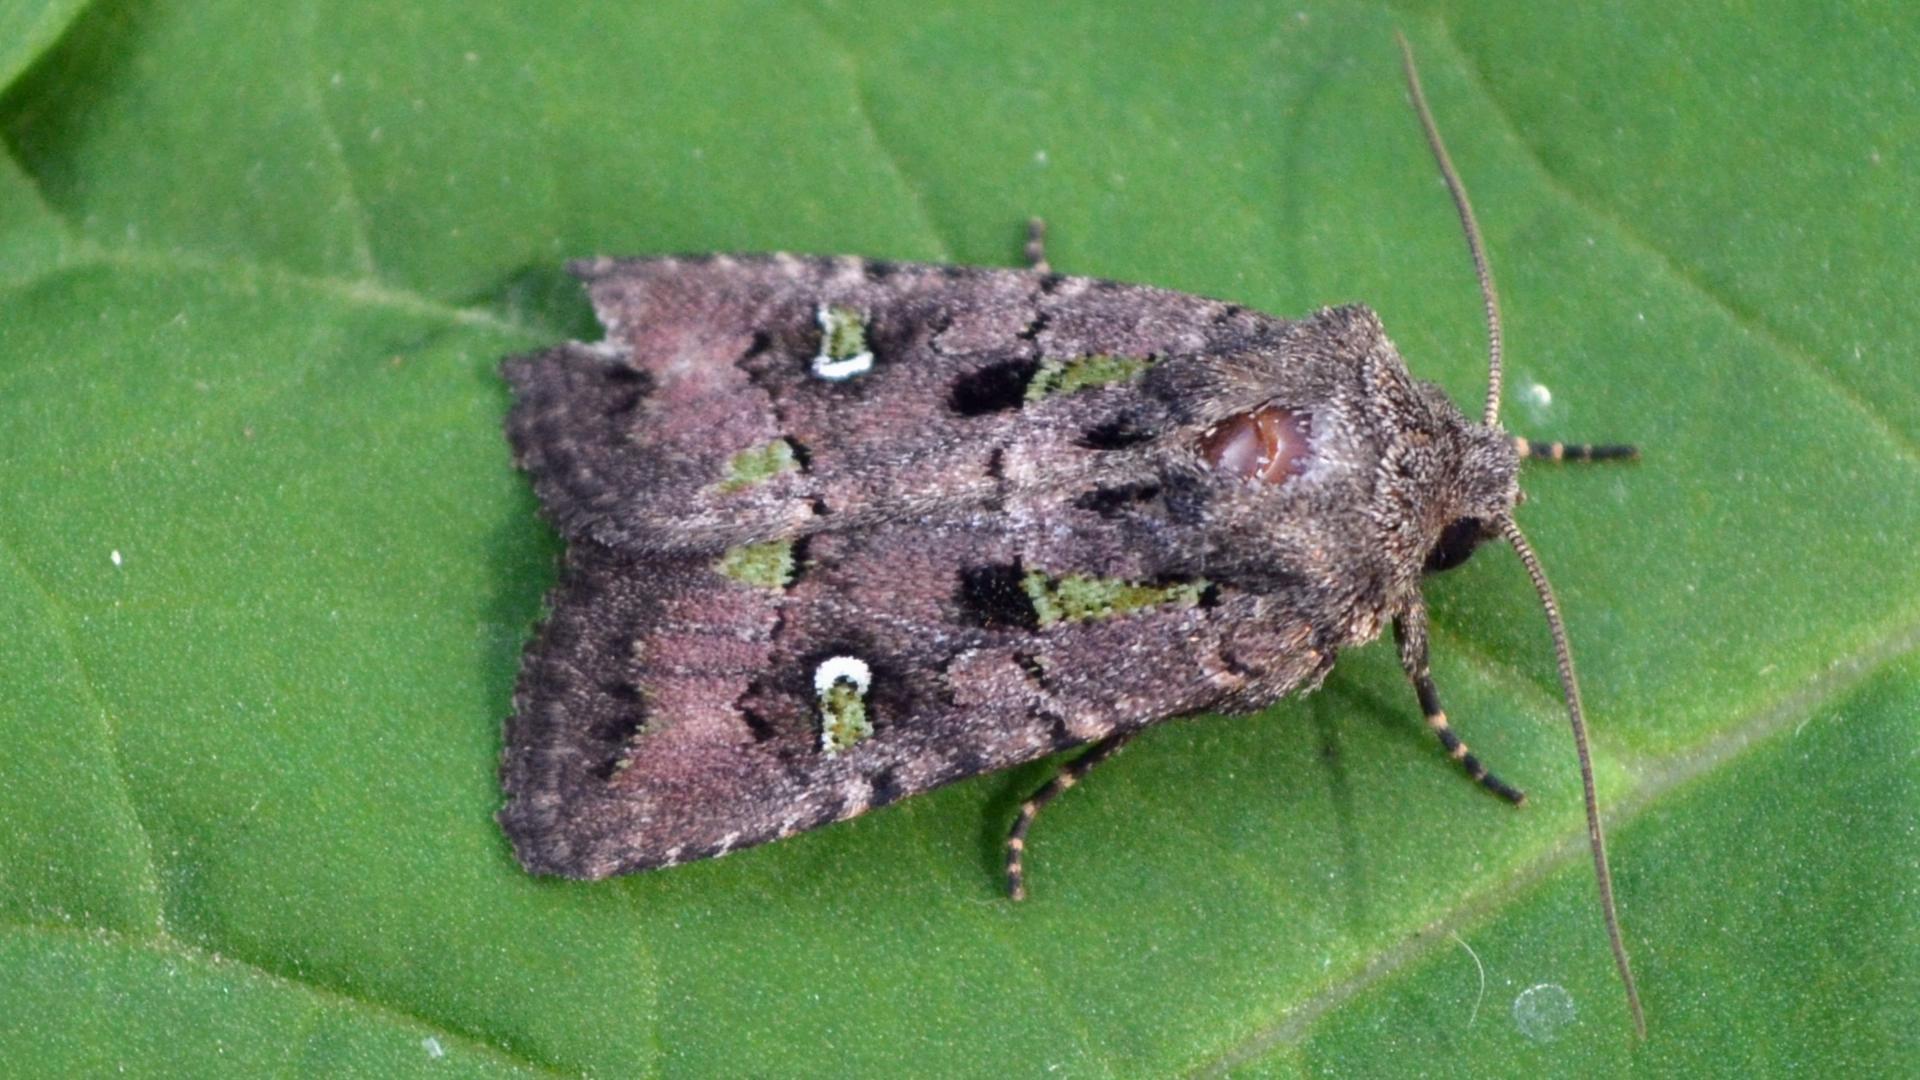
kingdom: Animalia
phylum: Arthropoda
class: Insecta
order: Lepidoptera
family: Noctuidae
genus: Lacinipolia
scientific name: Lacinipolia renigera
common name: Kidney-spotted minor
